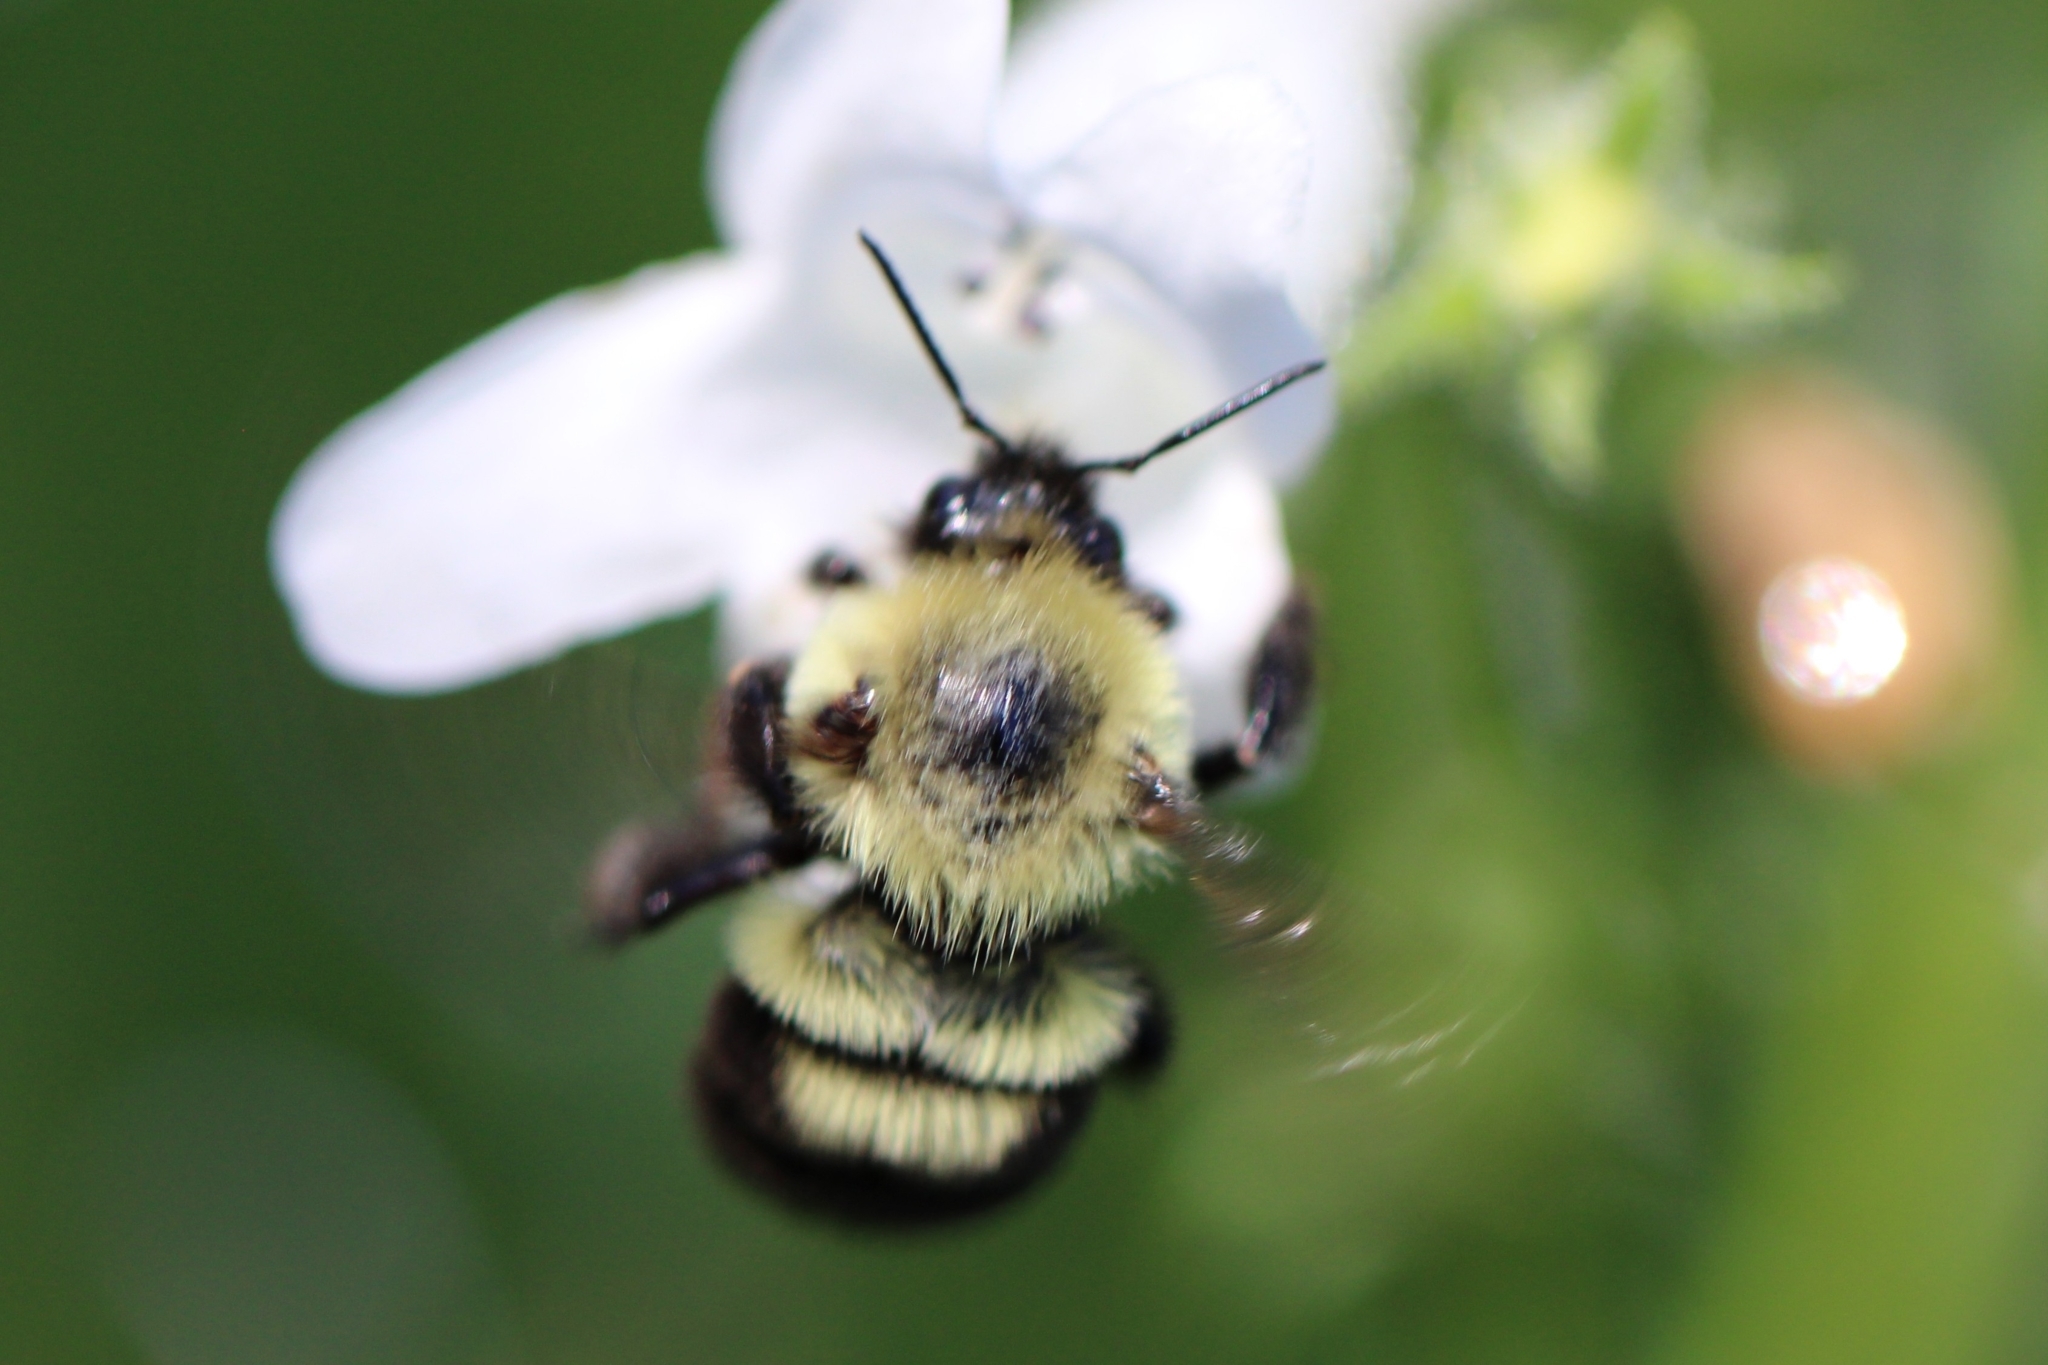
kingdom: Animalia
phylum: Arthropoda
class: Insecta
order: Hymenoptera
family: Apidae
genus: Bombus
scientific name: Bombus bimaculatus
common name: Two-spotted bumble bee
